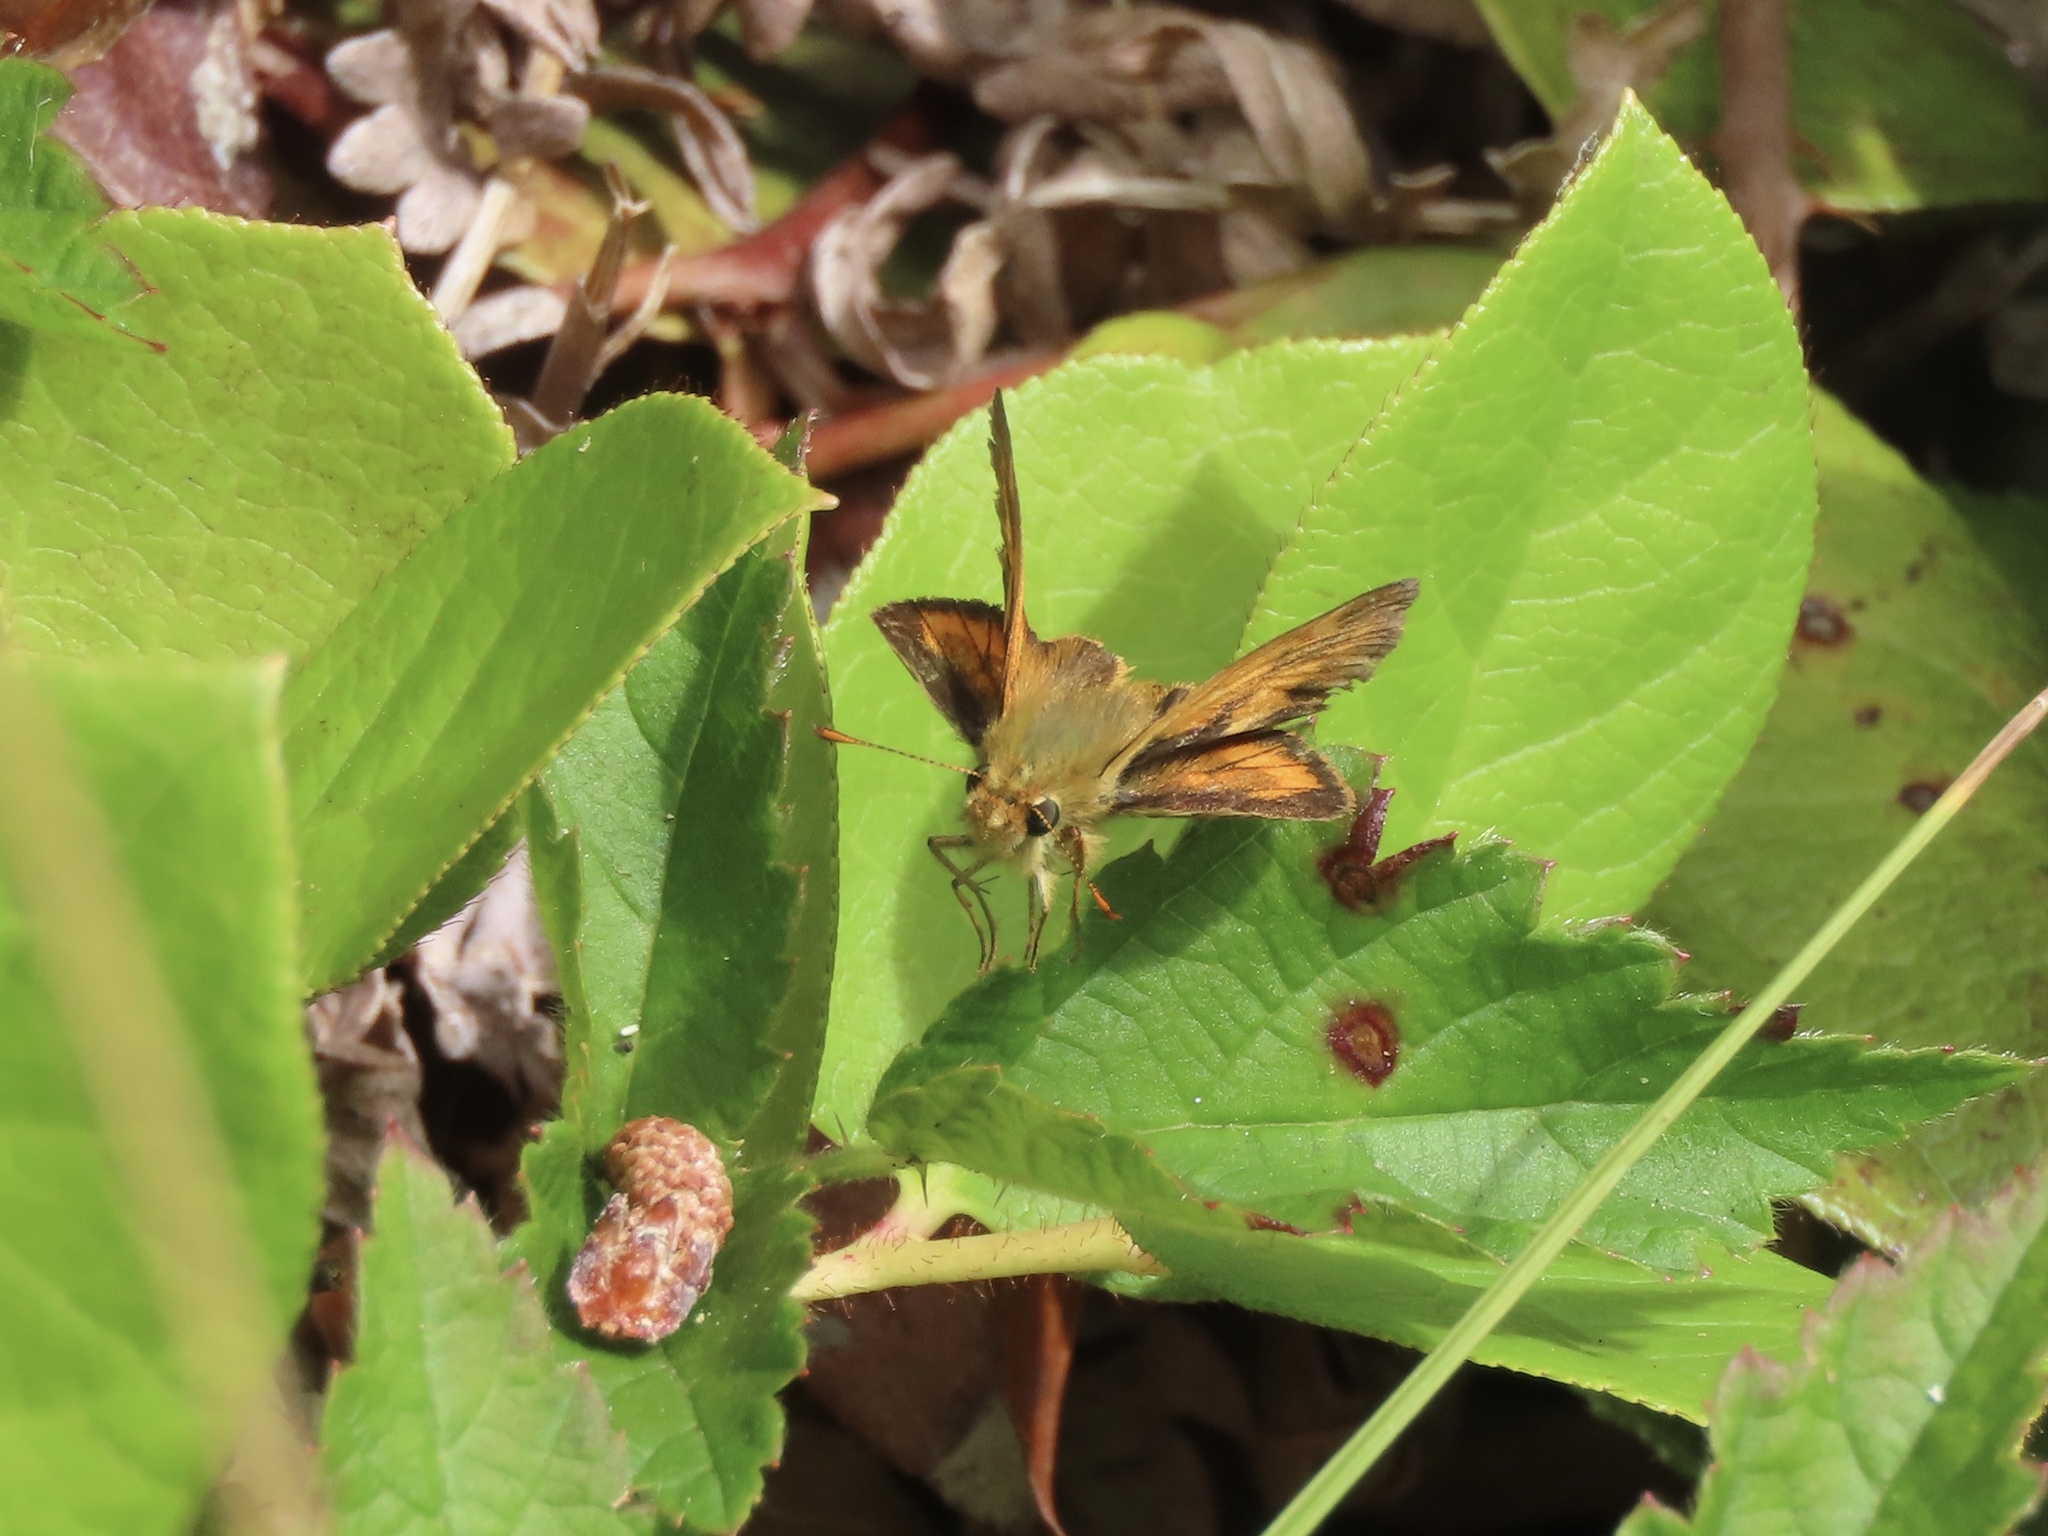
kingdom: Animalia
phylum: Arthropoda
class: Insecta
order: Lepidoptera
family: Hesperiidae
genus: Ochlodes
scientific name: Ochlodes sylvanoides
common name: Woodland skipper
